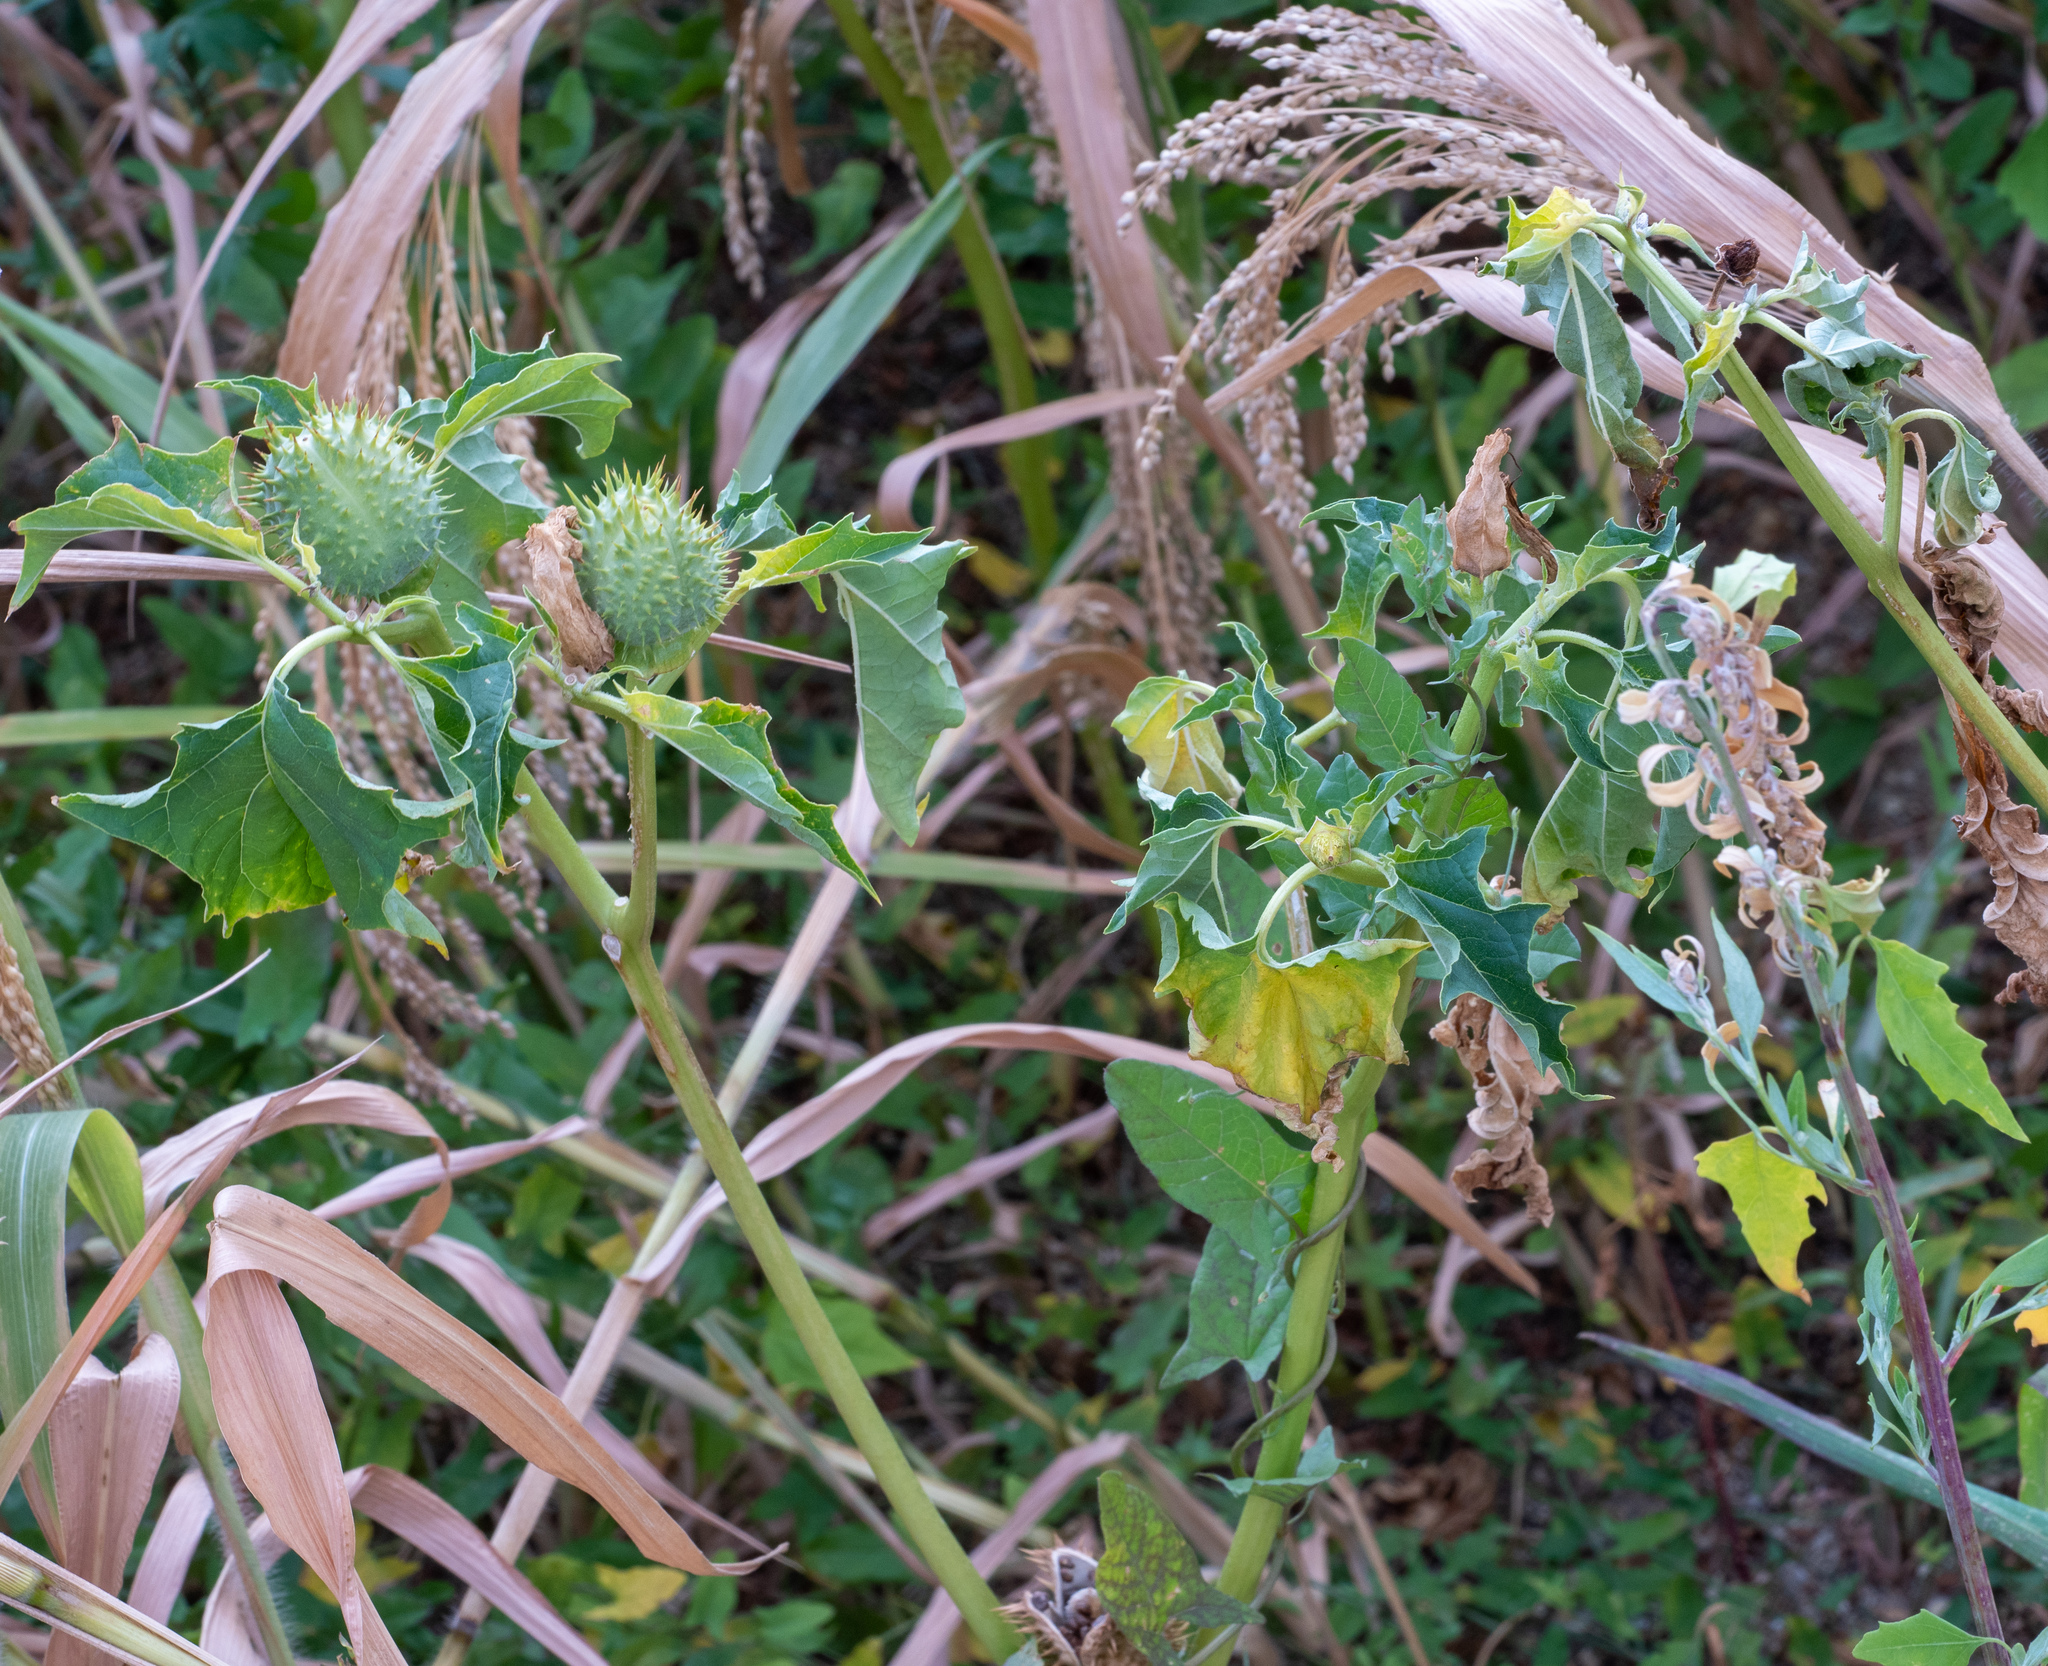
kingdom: Plantae
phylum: Tracheophyta
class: Magnoliopsida
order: Solanales
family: Solanaceae
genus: Datura
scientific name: Datura stramonium
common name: Thorn-apple
